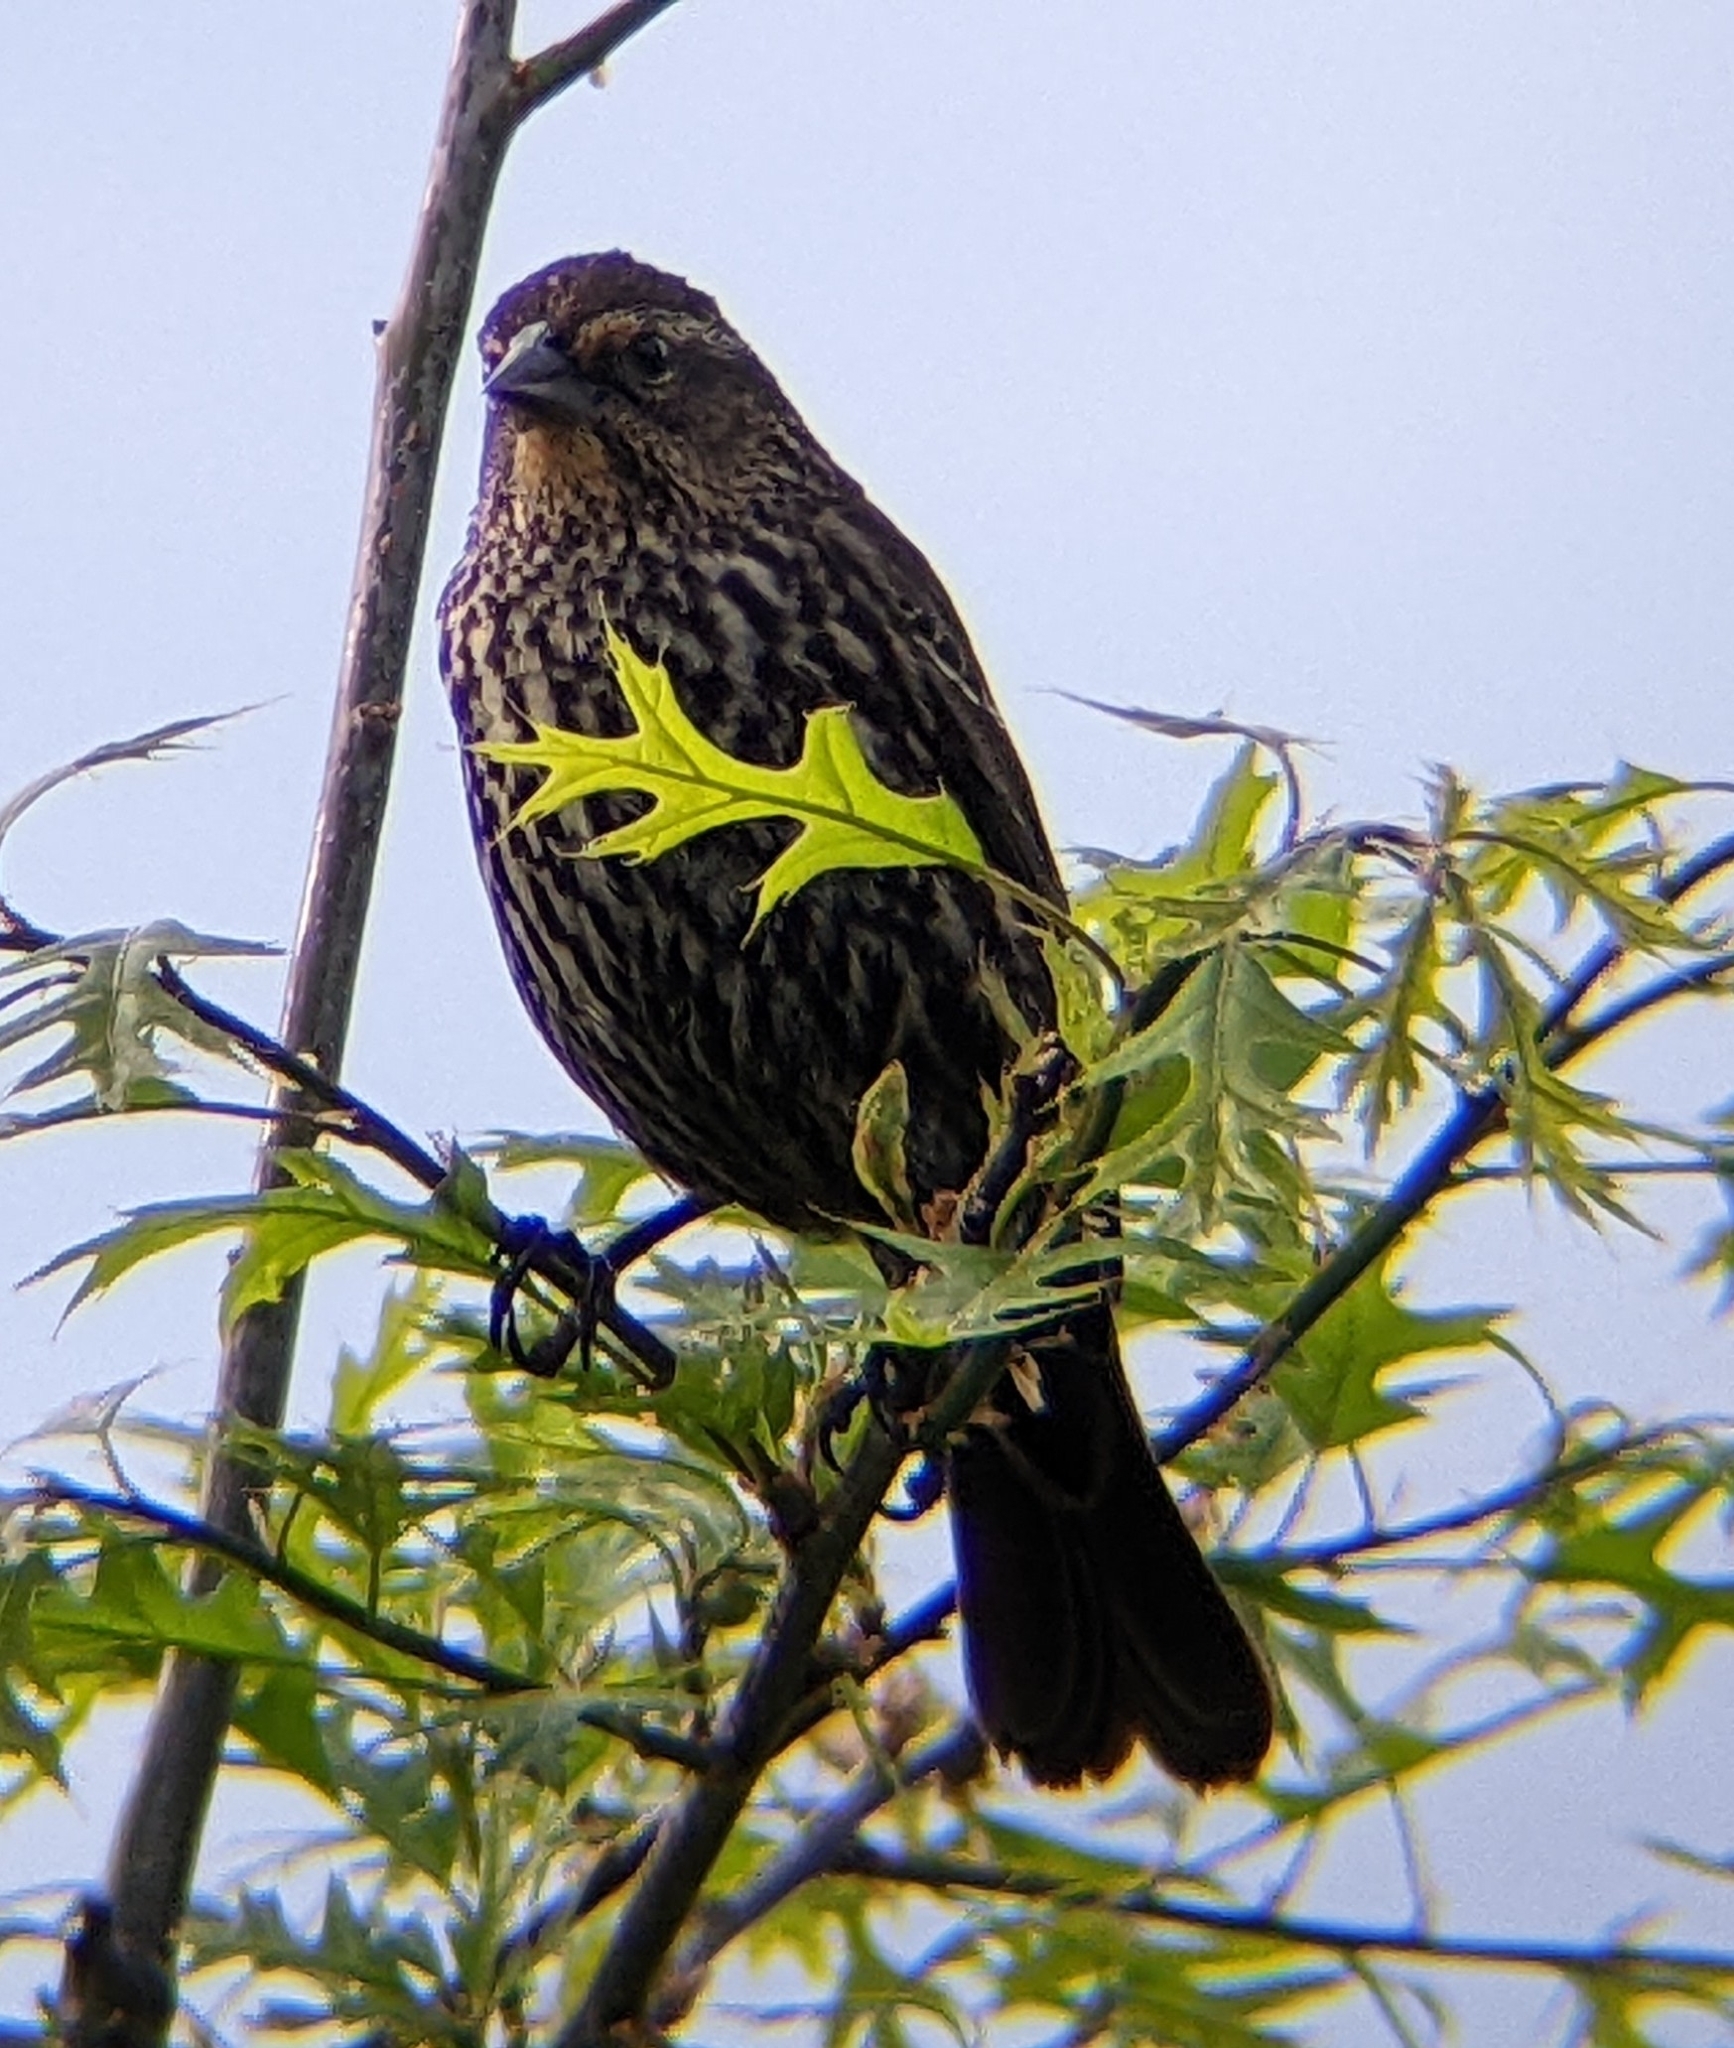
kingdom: Animalia
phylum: Chordata
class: Aves
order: Passeriformes
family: Icteridae
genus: Agelaius
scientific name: Agelaius phoeniceus
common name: Red-winged blackbird
